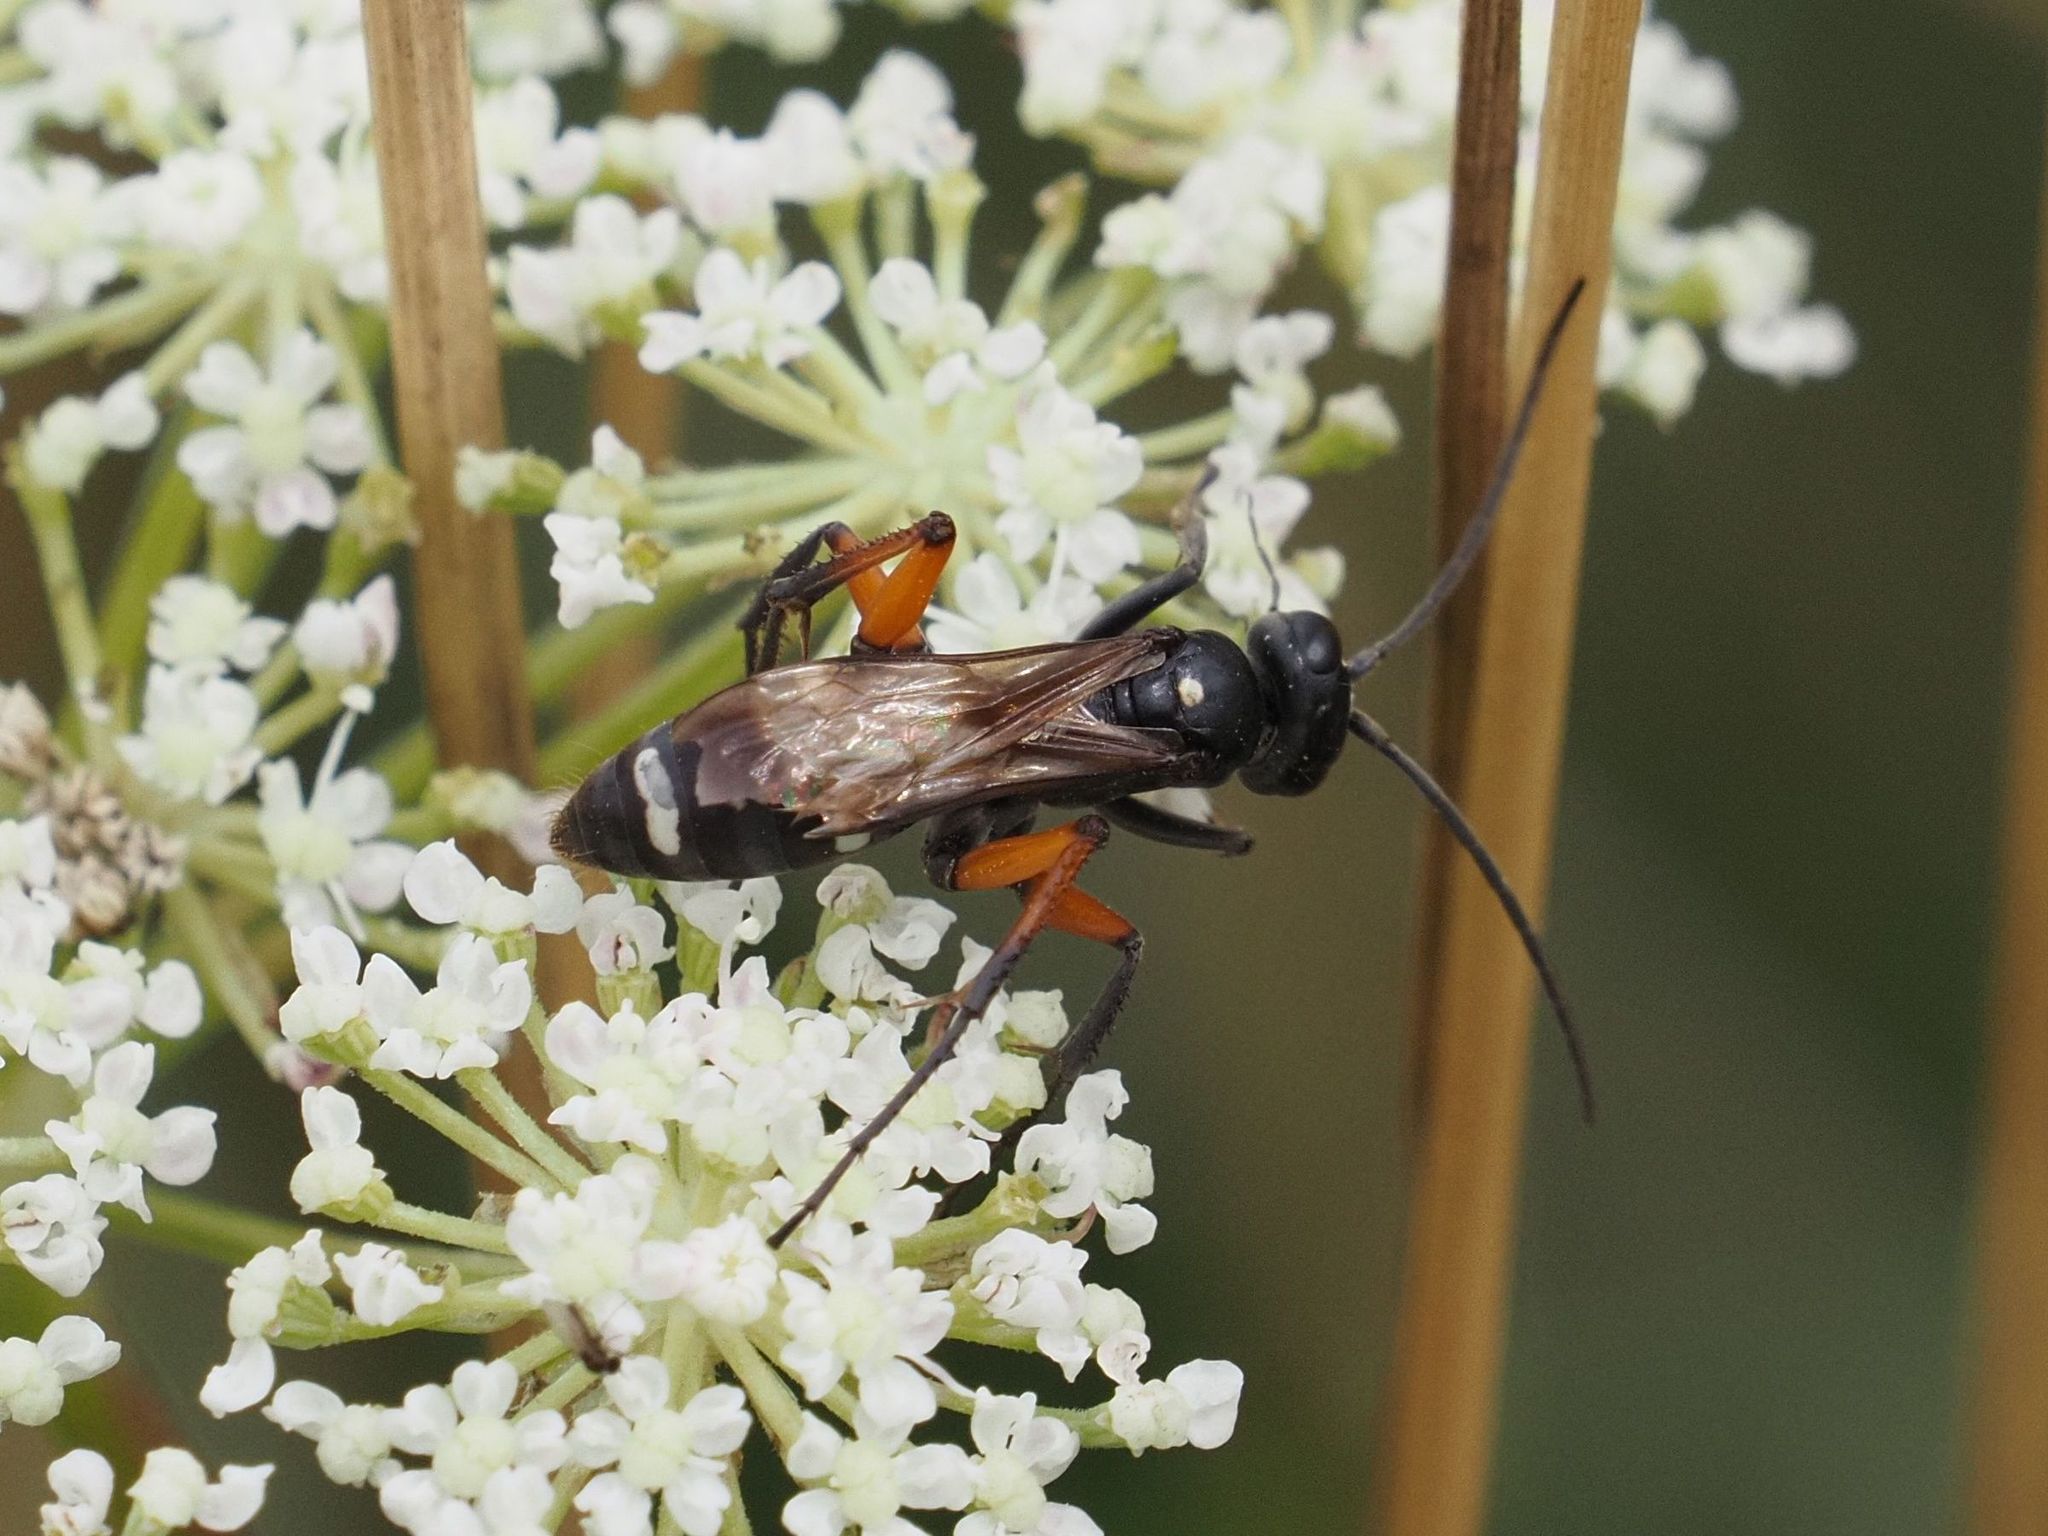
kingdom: Animalia
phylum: Arthropoda
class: Insecta
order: Hymenoptera
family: Pompilidae
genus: Cryptocheilus
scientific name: Cryptocheilus versicolor
